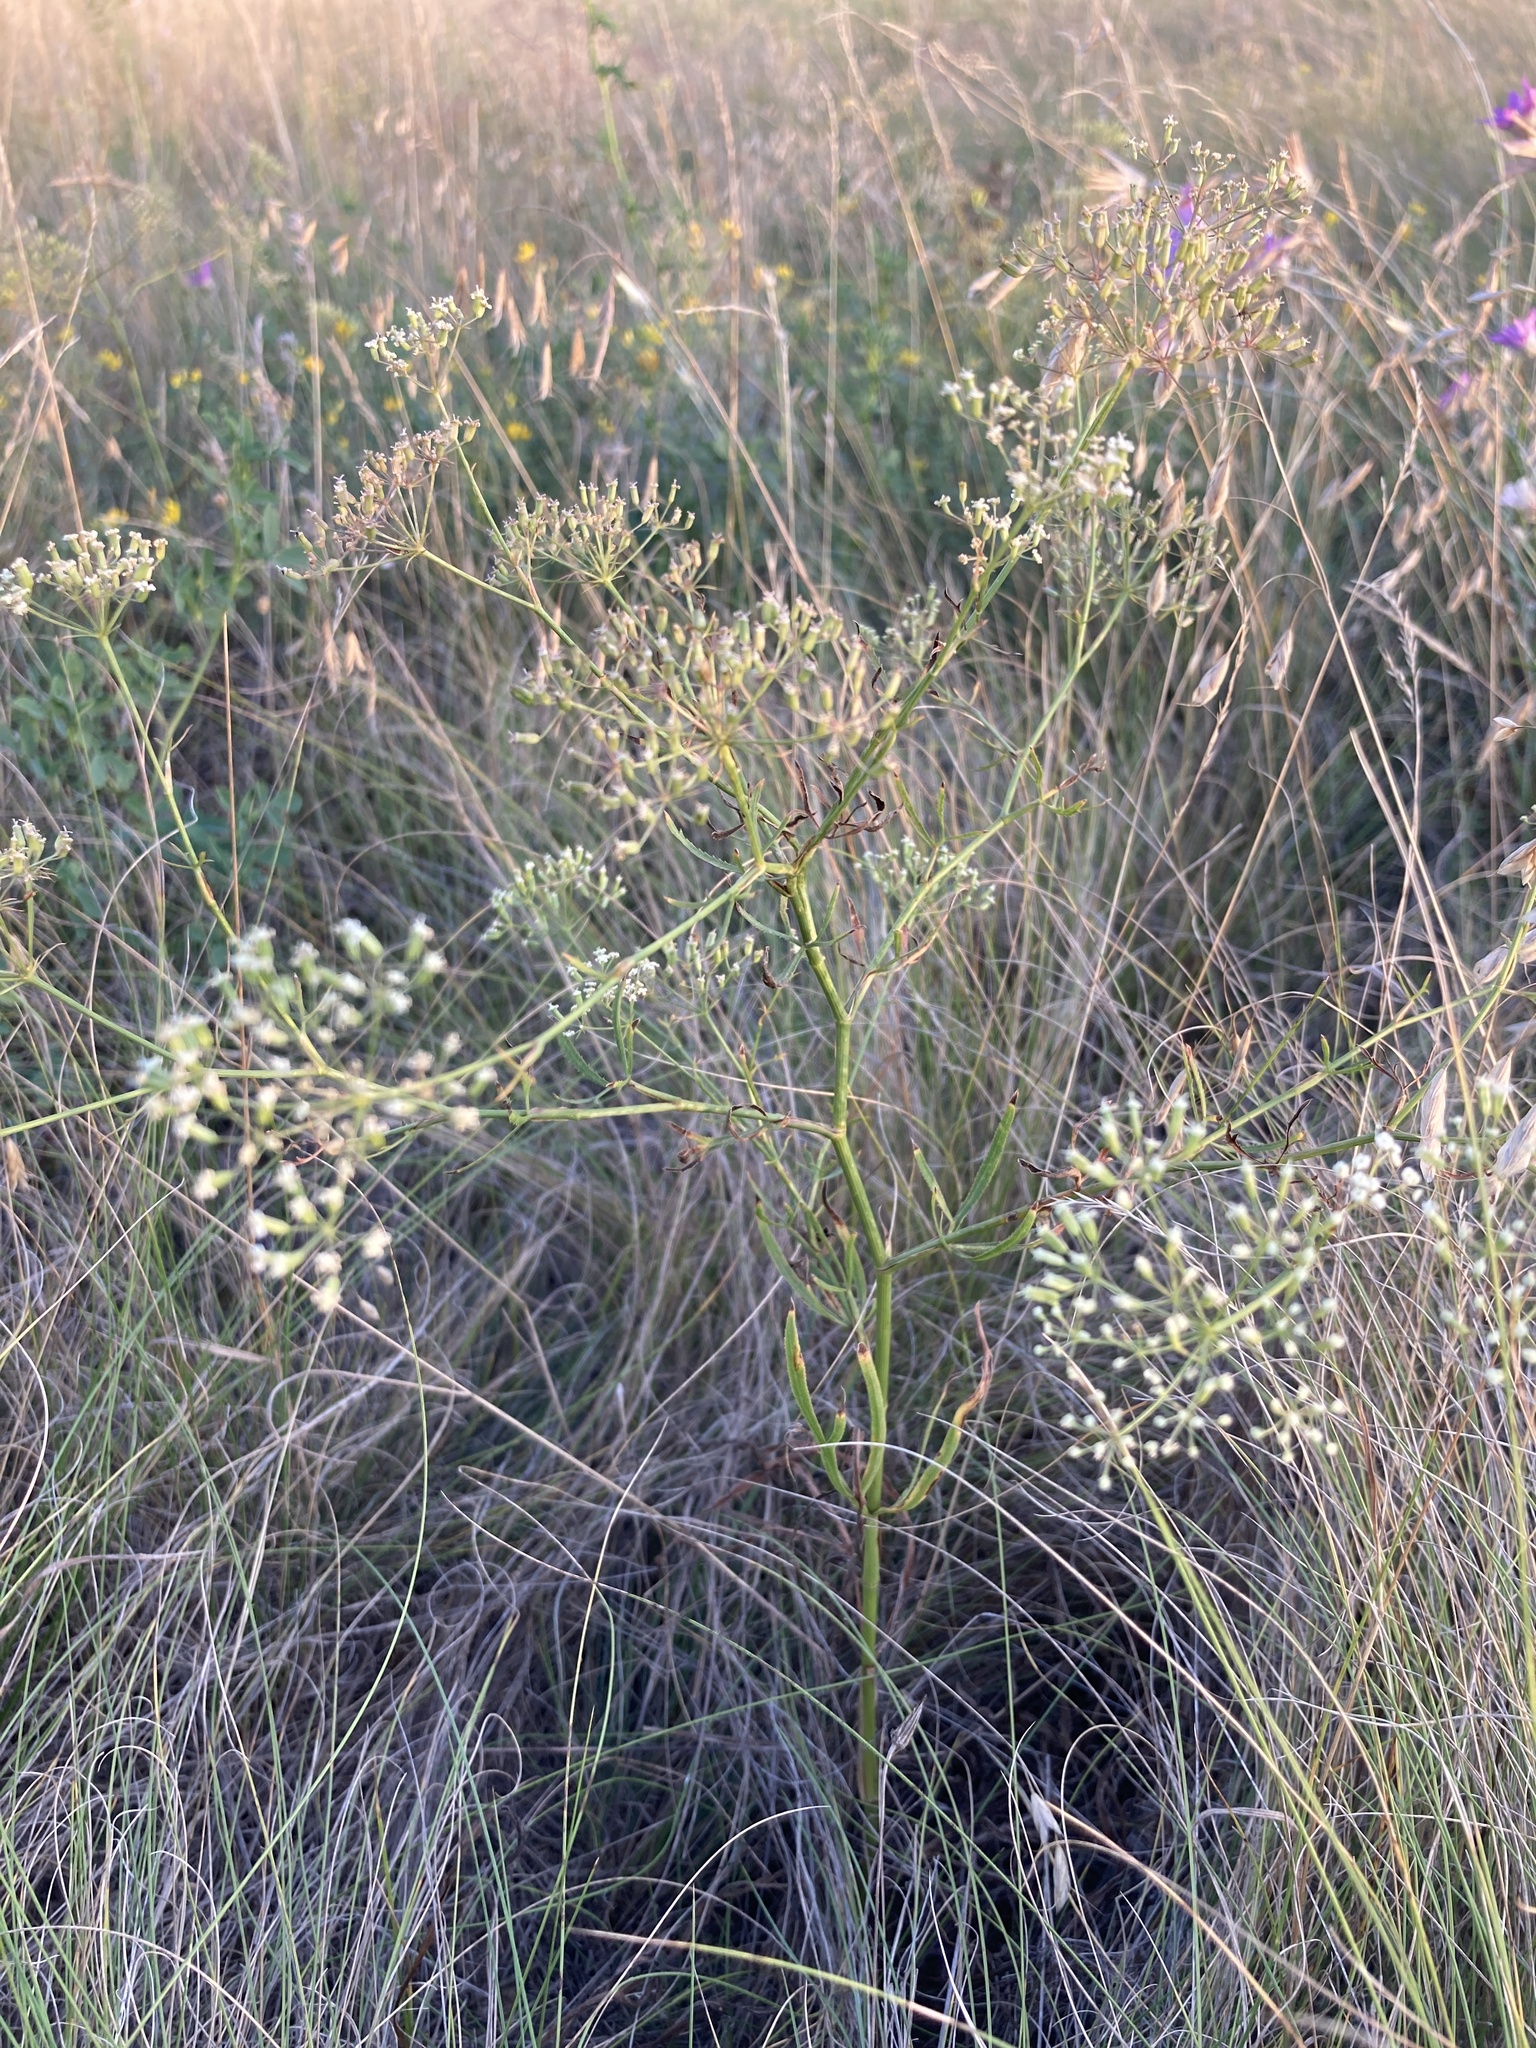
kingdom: Plantae
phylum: Tracheophyta
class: Magnoliopsida
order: Apiales
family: Apiaceae
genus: Falcaria
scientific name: Falcaria vulgaris
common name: Longleaf
